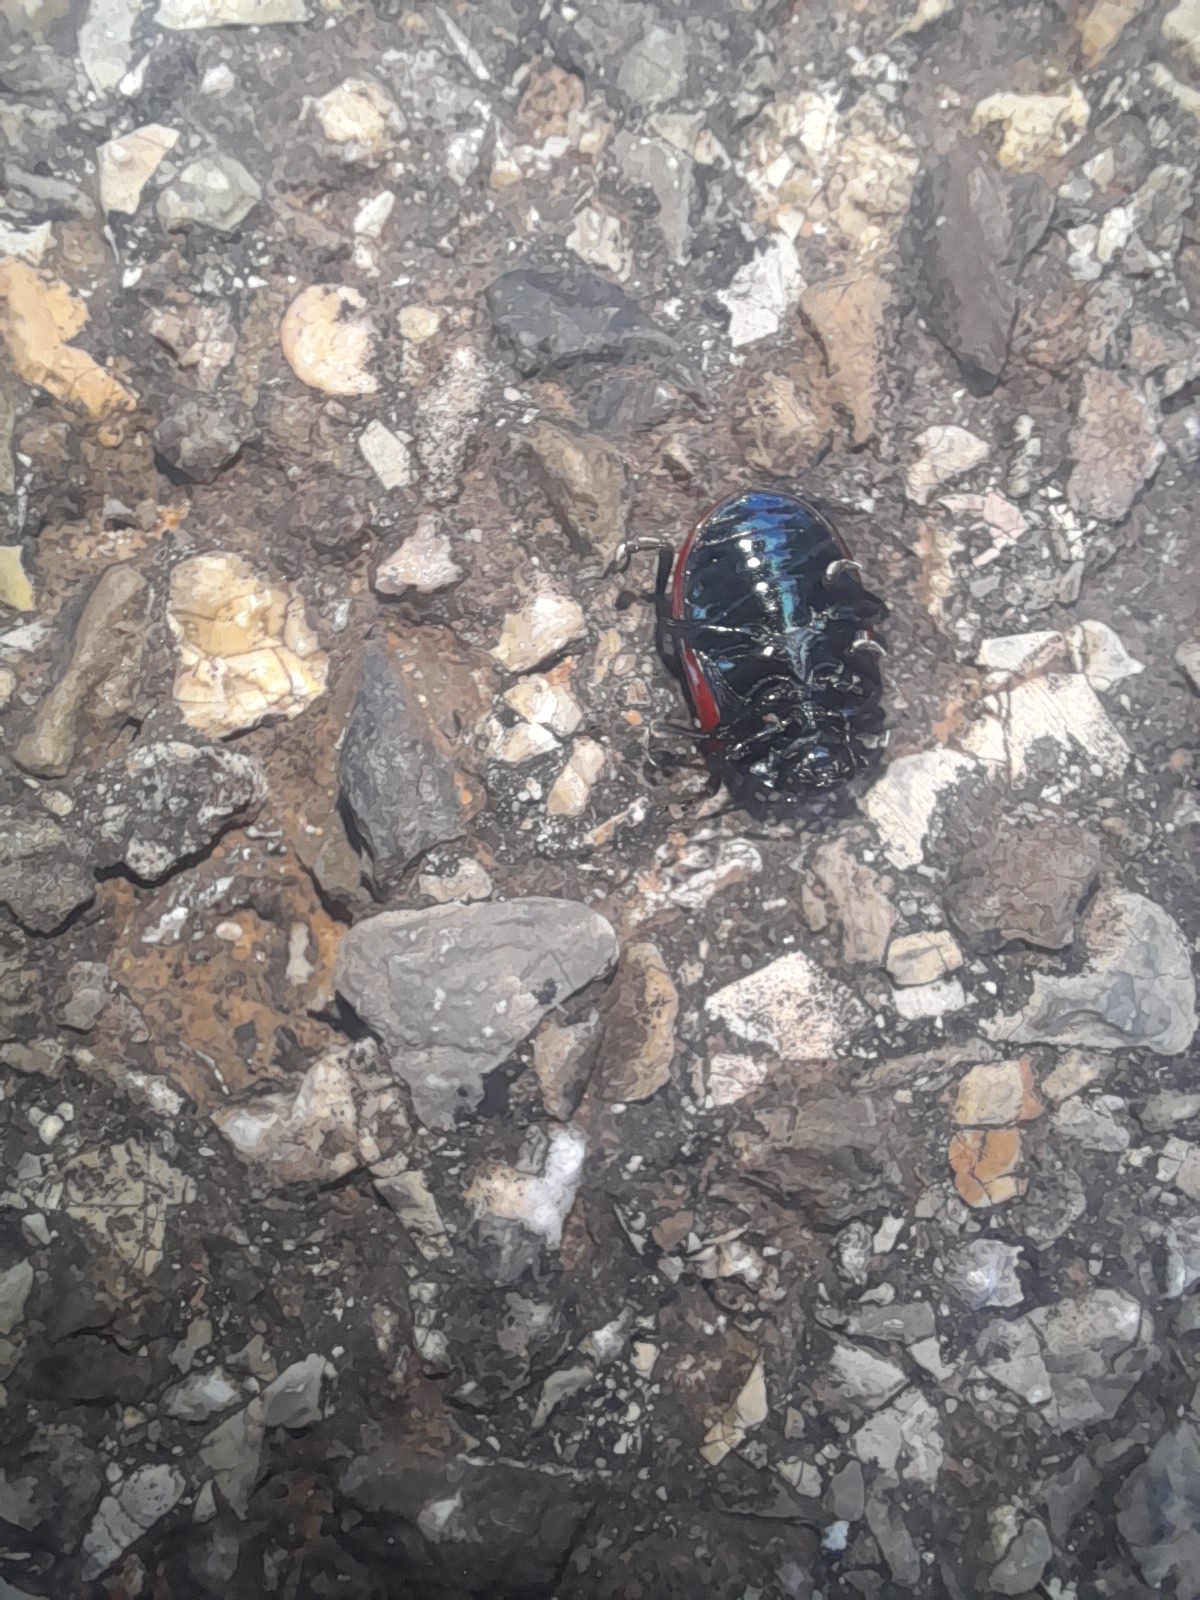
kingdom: Animalia
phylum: Arthropoda
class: Insecta
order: Coleoptera
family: Chrysomelidae
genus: Chrysolina
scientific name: Chrysolina grossa
